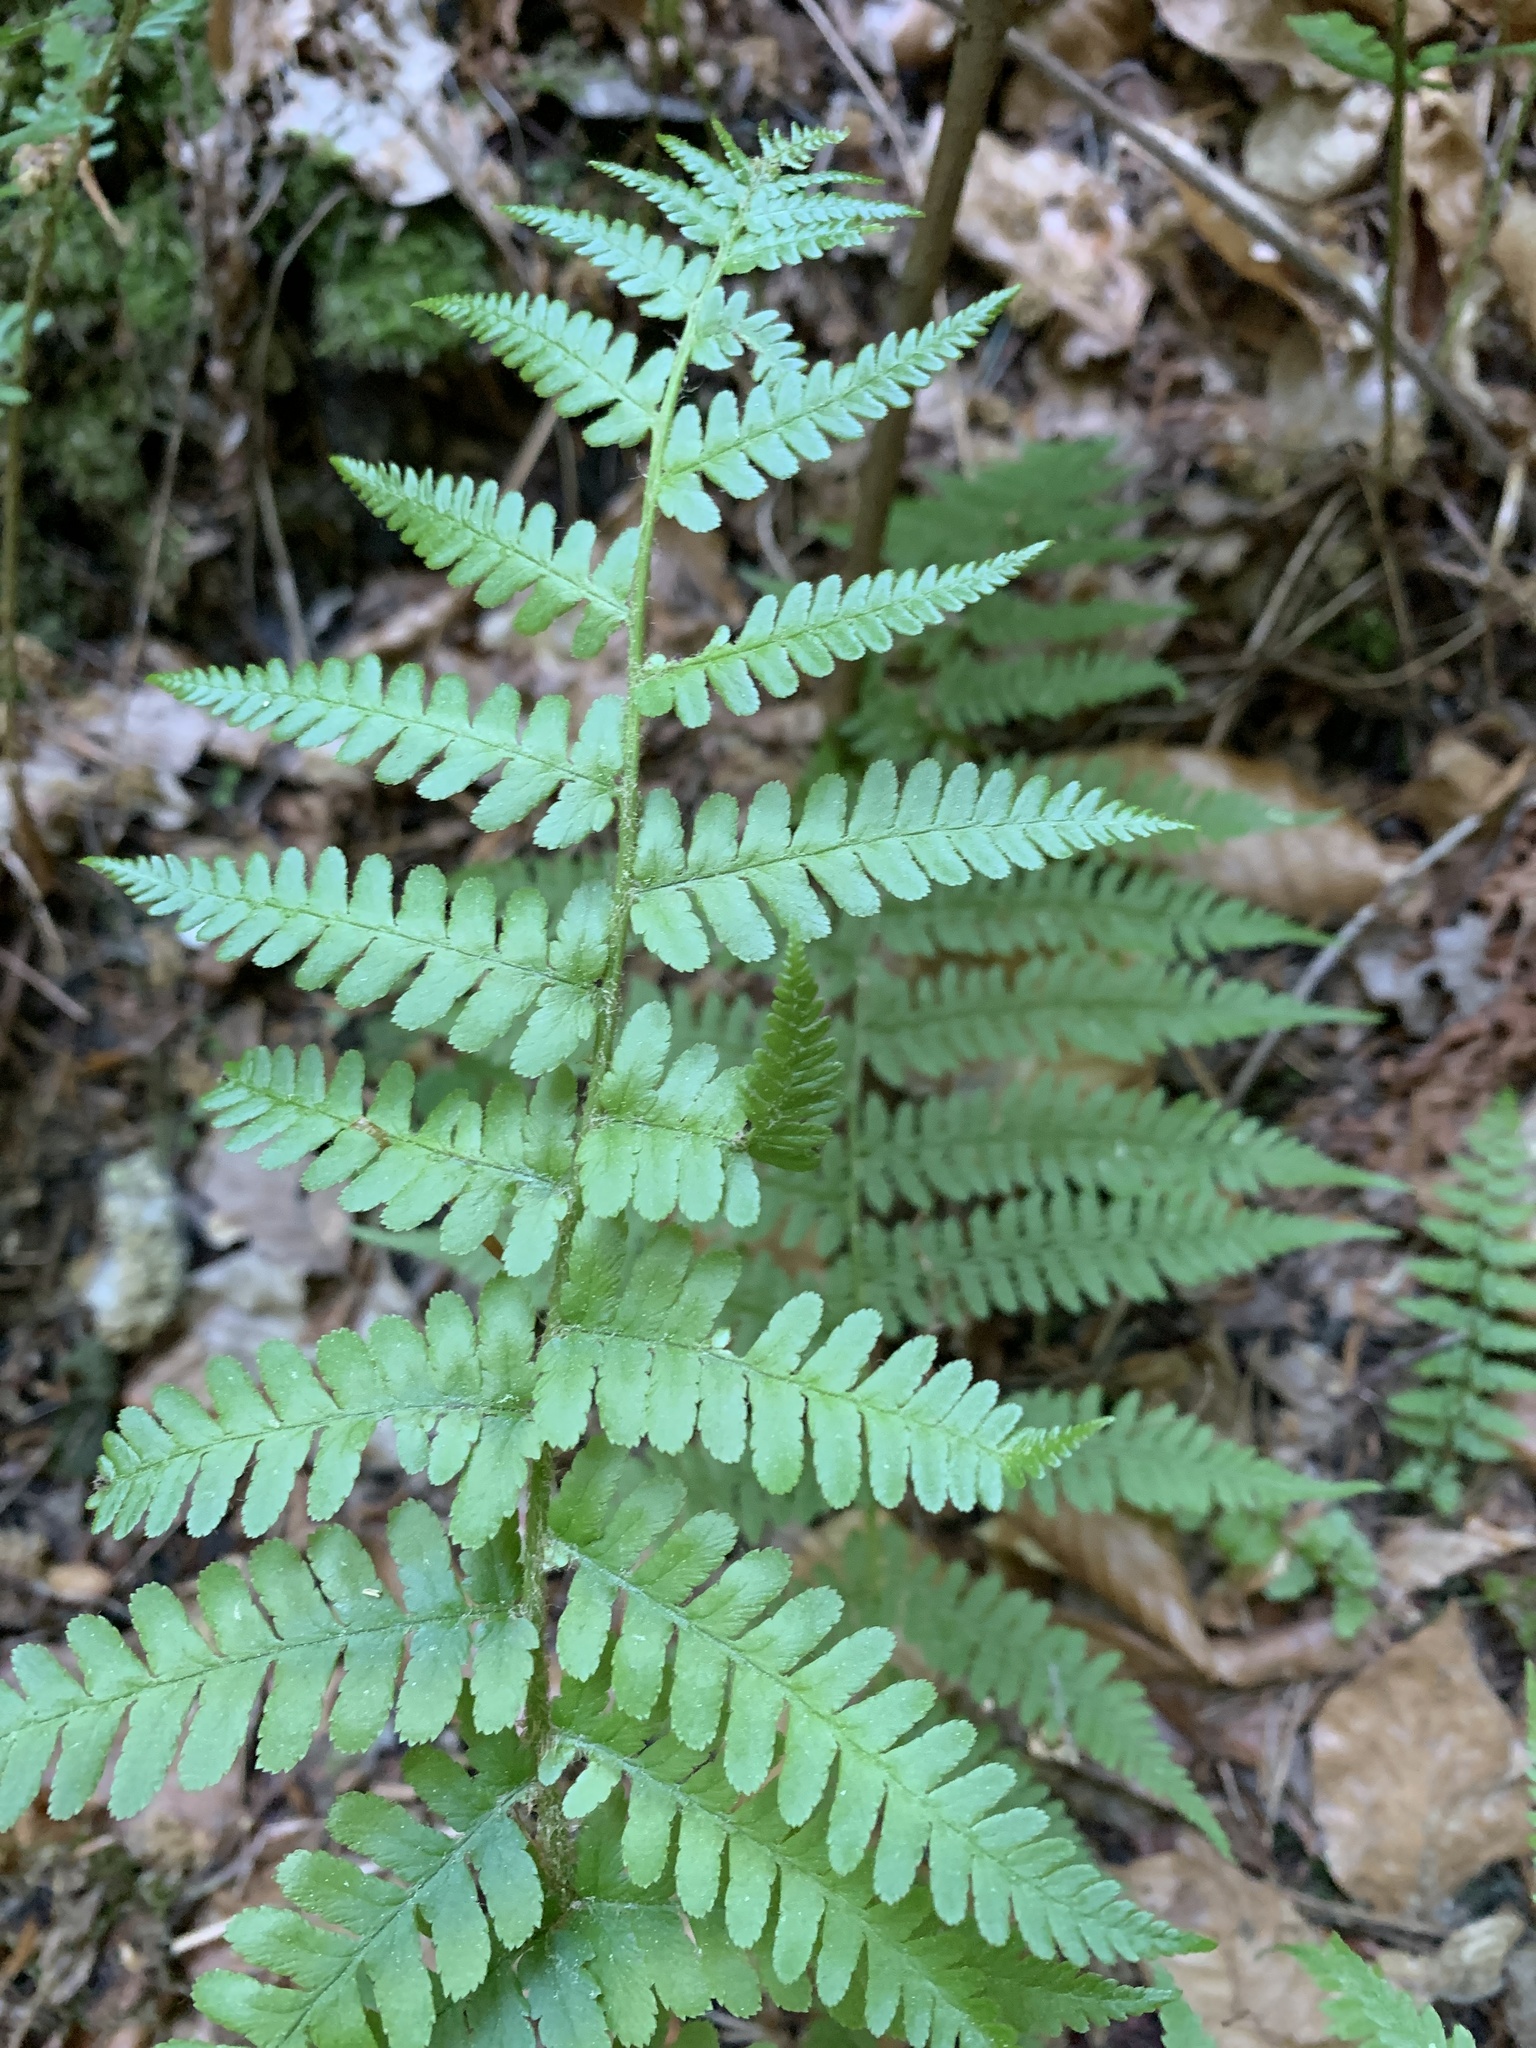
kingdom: Plantae
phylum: Tracheophyta
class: Polypodiopsida
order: Polypodiales
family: Dryopteridaceae
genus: Dryopteris
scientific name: Dryopteris filix-mas
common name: Male fern
